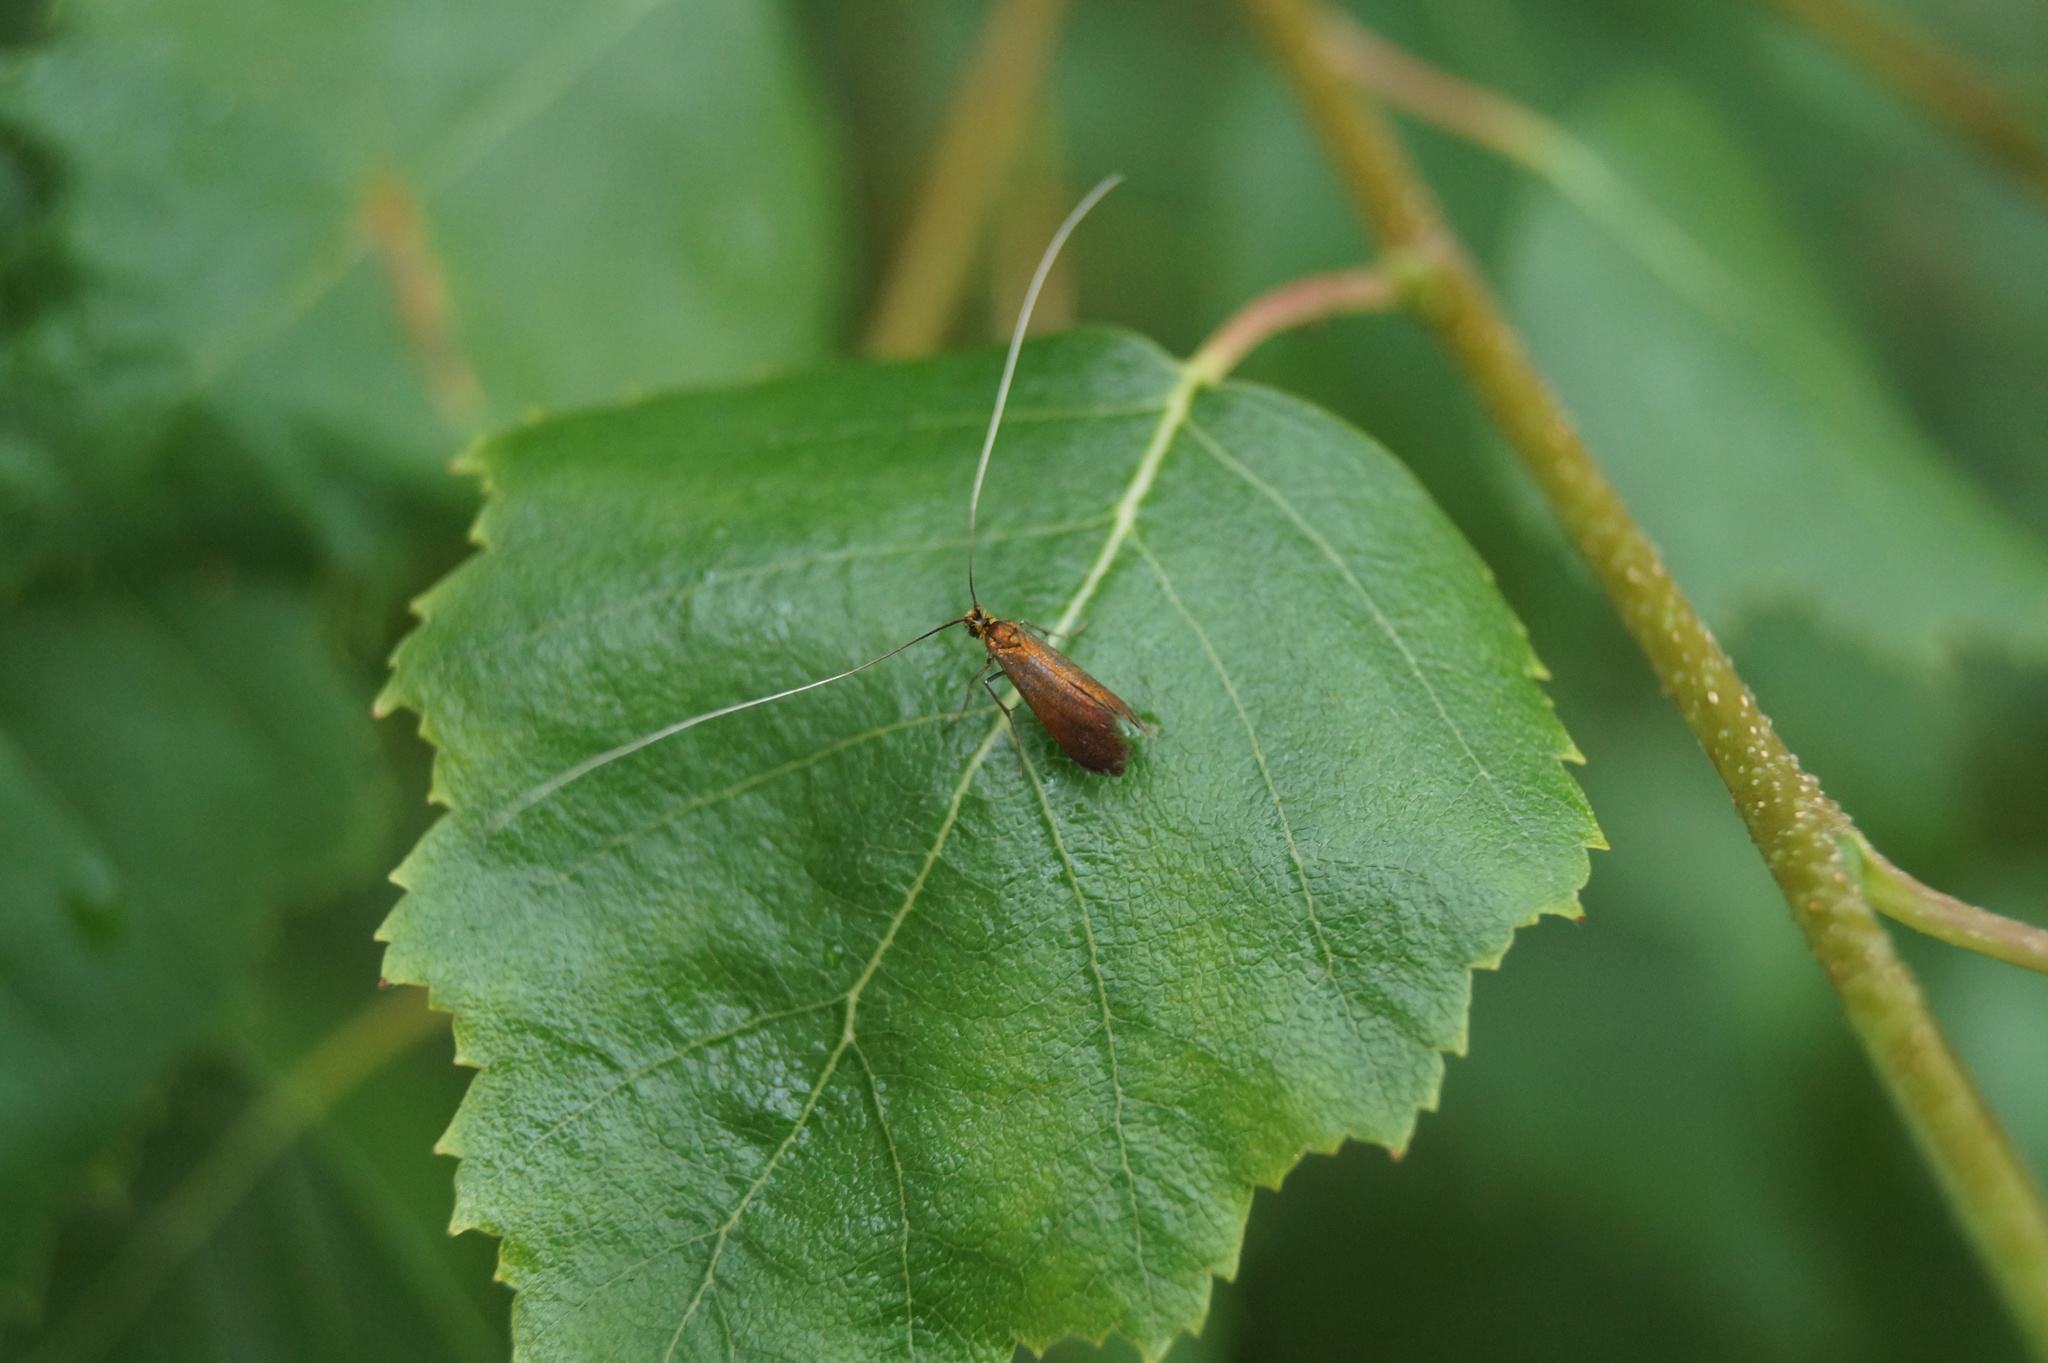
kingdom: Animalia
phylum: Arthropoda
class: Insecta
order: Lepidoptera
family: Adelidae
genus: Adela
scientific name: Adela violella
